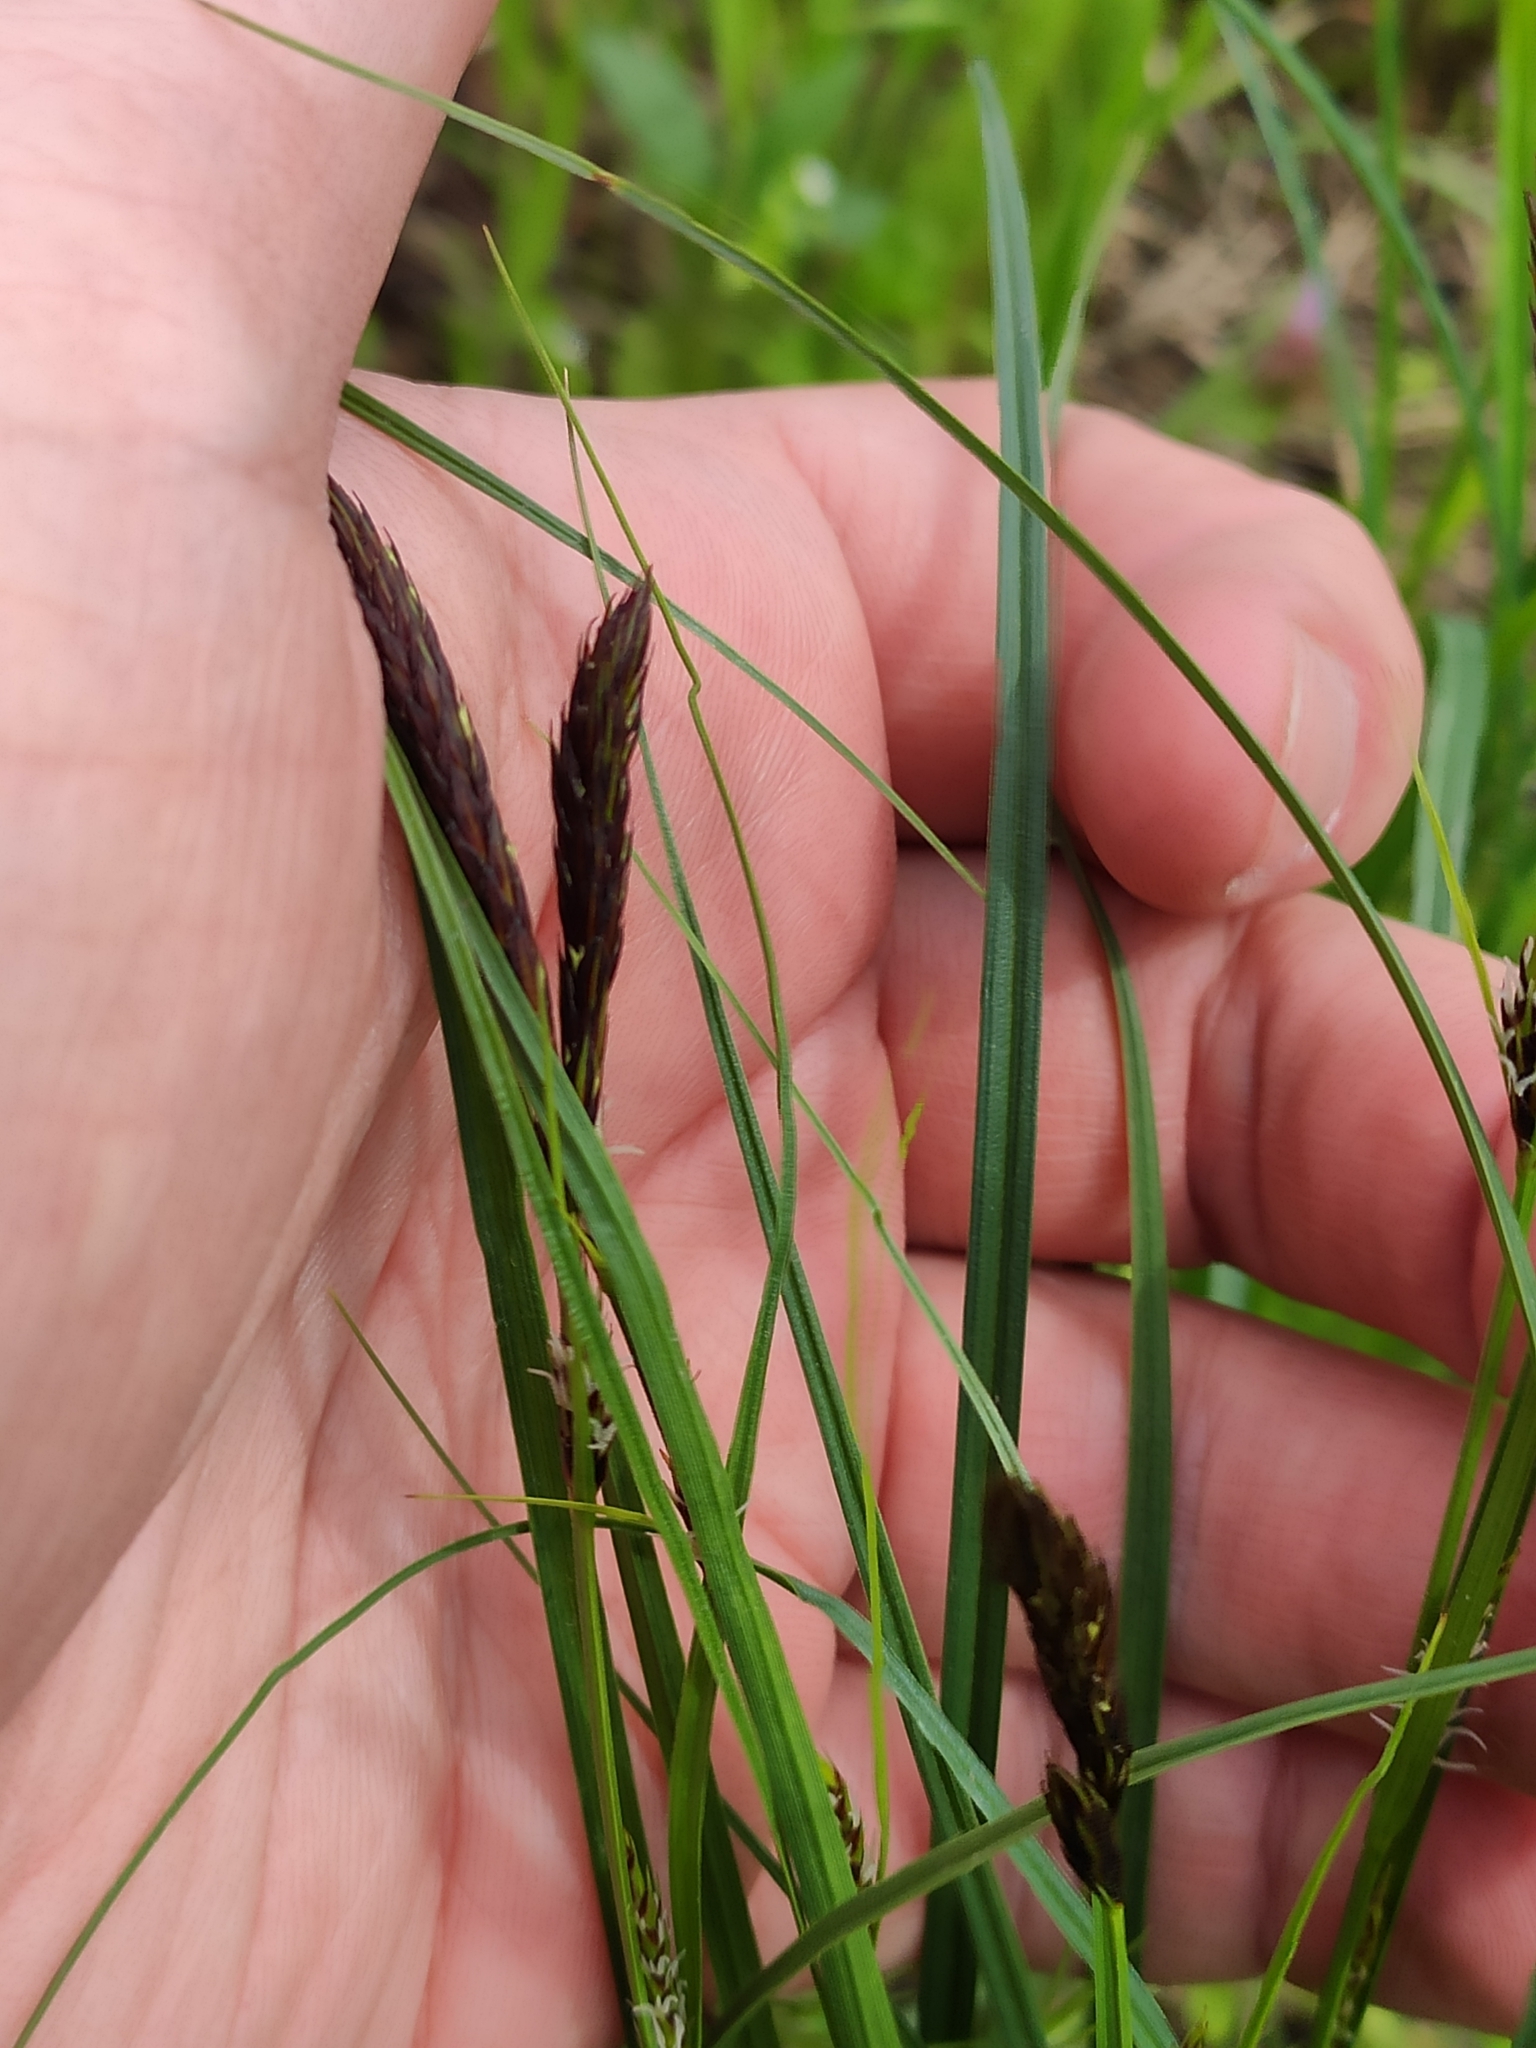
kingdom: Plantae
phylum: Tracheophyta
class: Liliopsida
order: Poales
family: Cyperaceae
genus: Carex
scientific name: Carex melanostachya
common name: Black-spiked sedge
